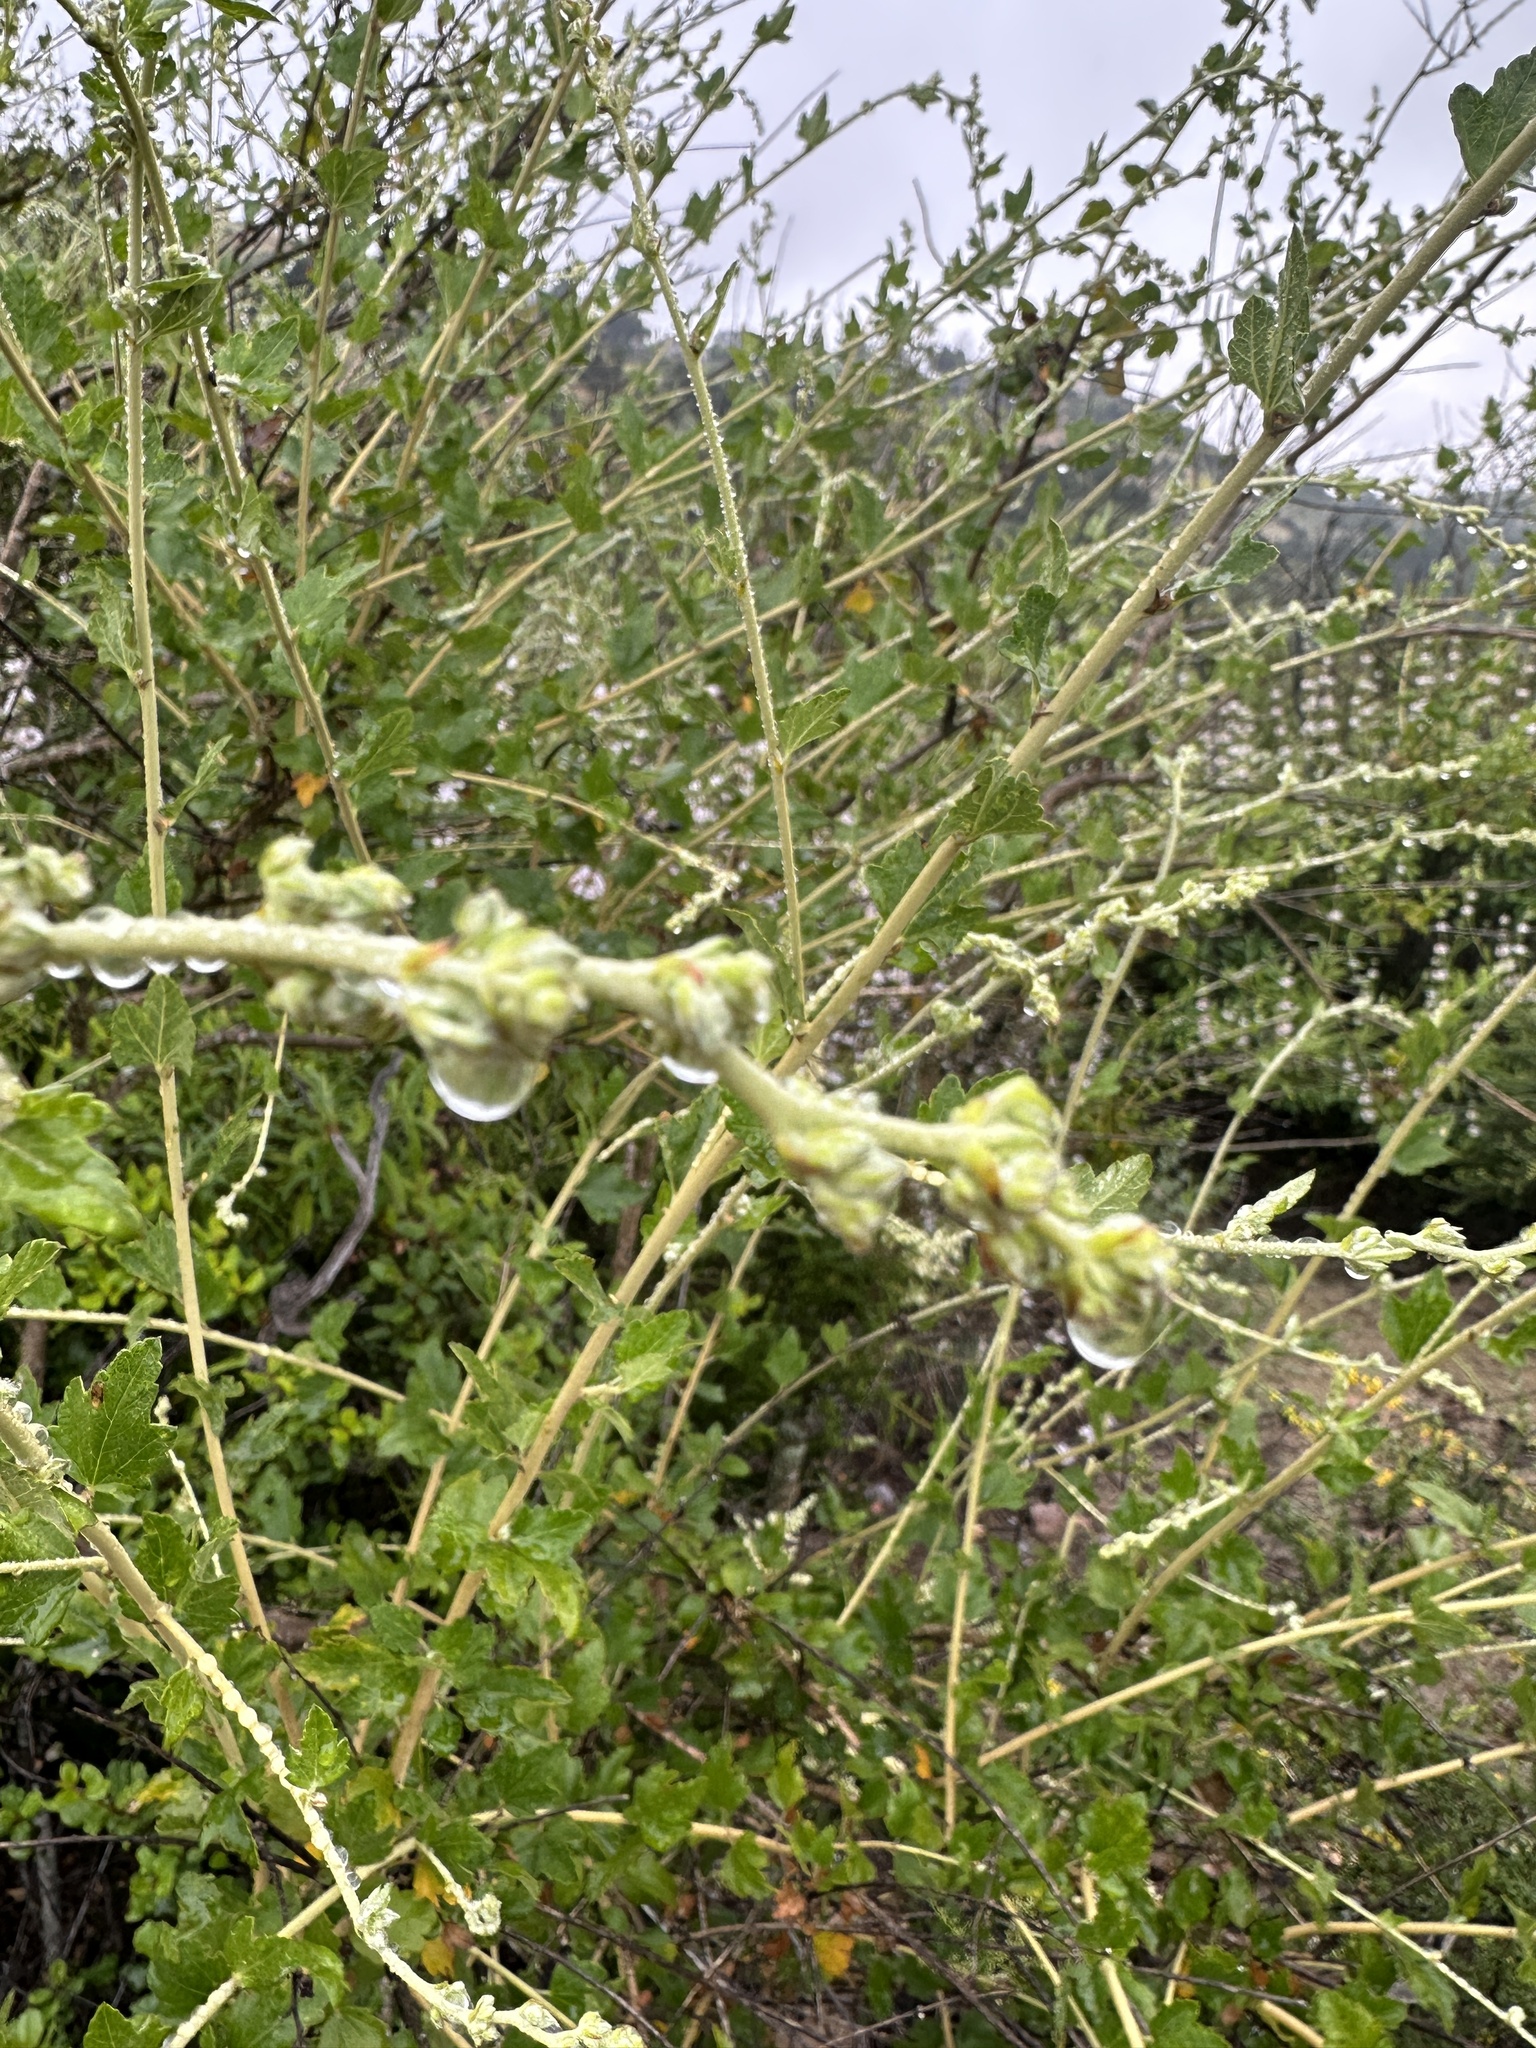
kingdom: Plantae
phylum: Tracheophyta
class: Magnoliopsida
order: Malvales
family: Malvaceae
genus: Malacothamnus
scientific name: Malacothamnus fasciculatus
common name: Sant cruz island bush-mallow
